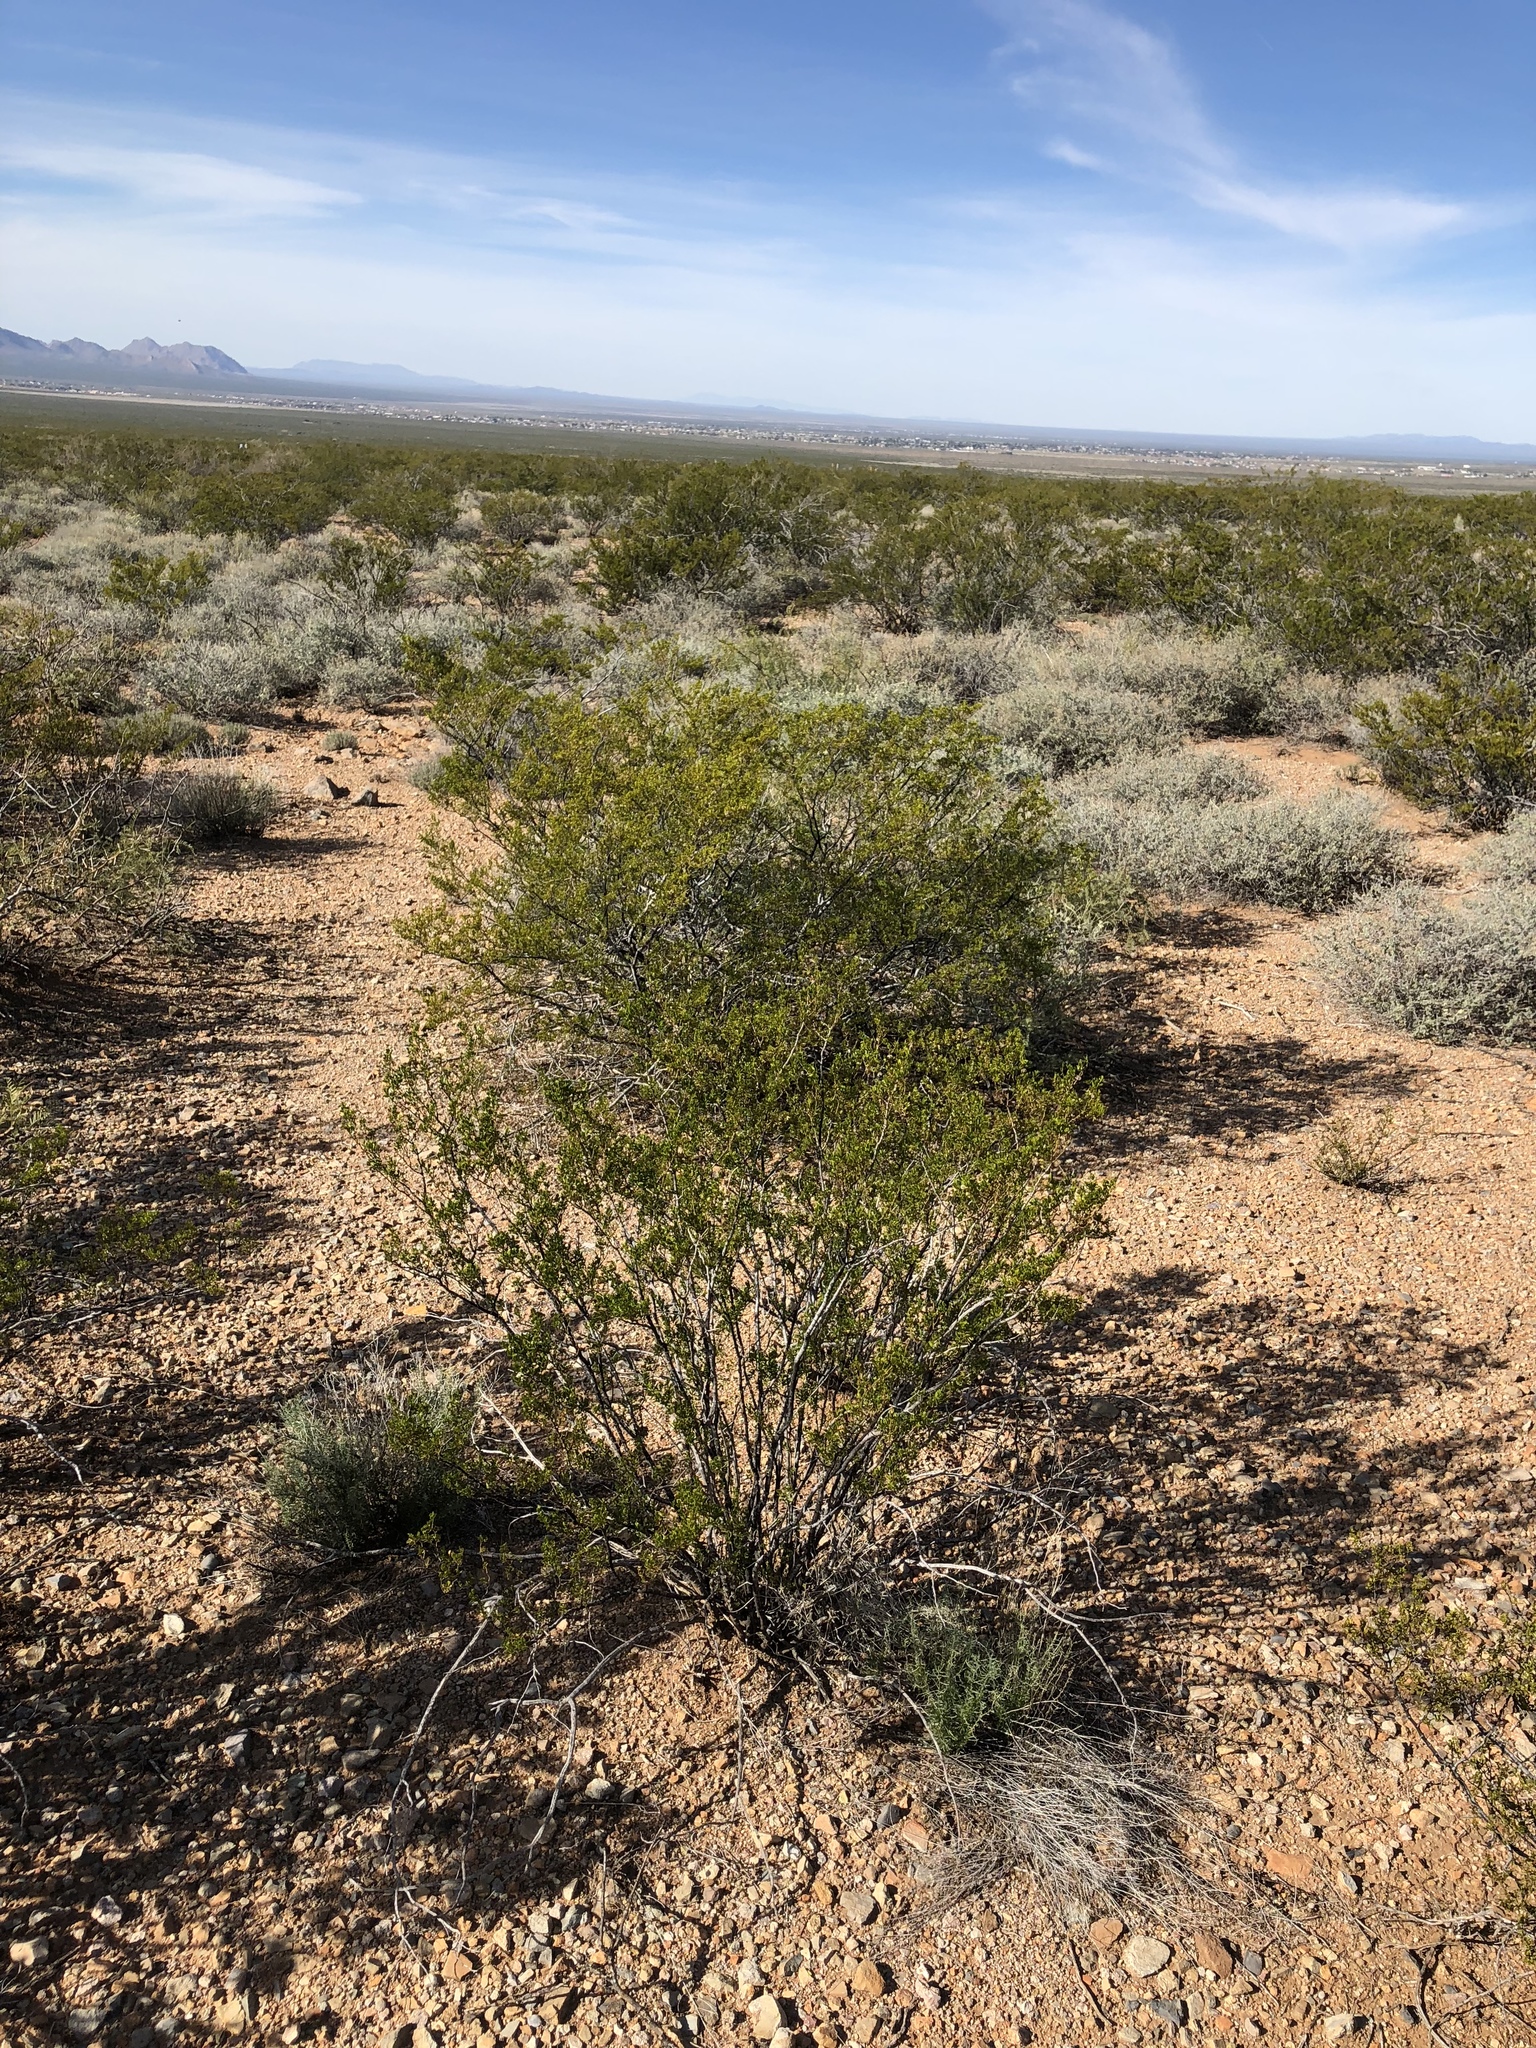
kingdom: Plantae
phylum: Tracheophyta
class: Magnoliopsida
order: Zygophyllales
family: Zygophyllaceae
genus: Larrea
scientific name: Larrea tridentata
